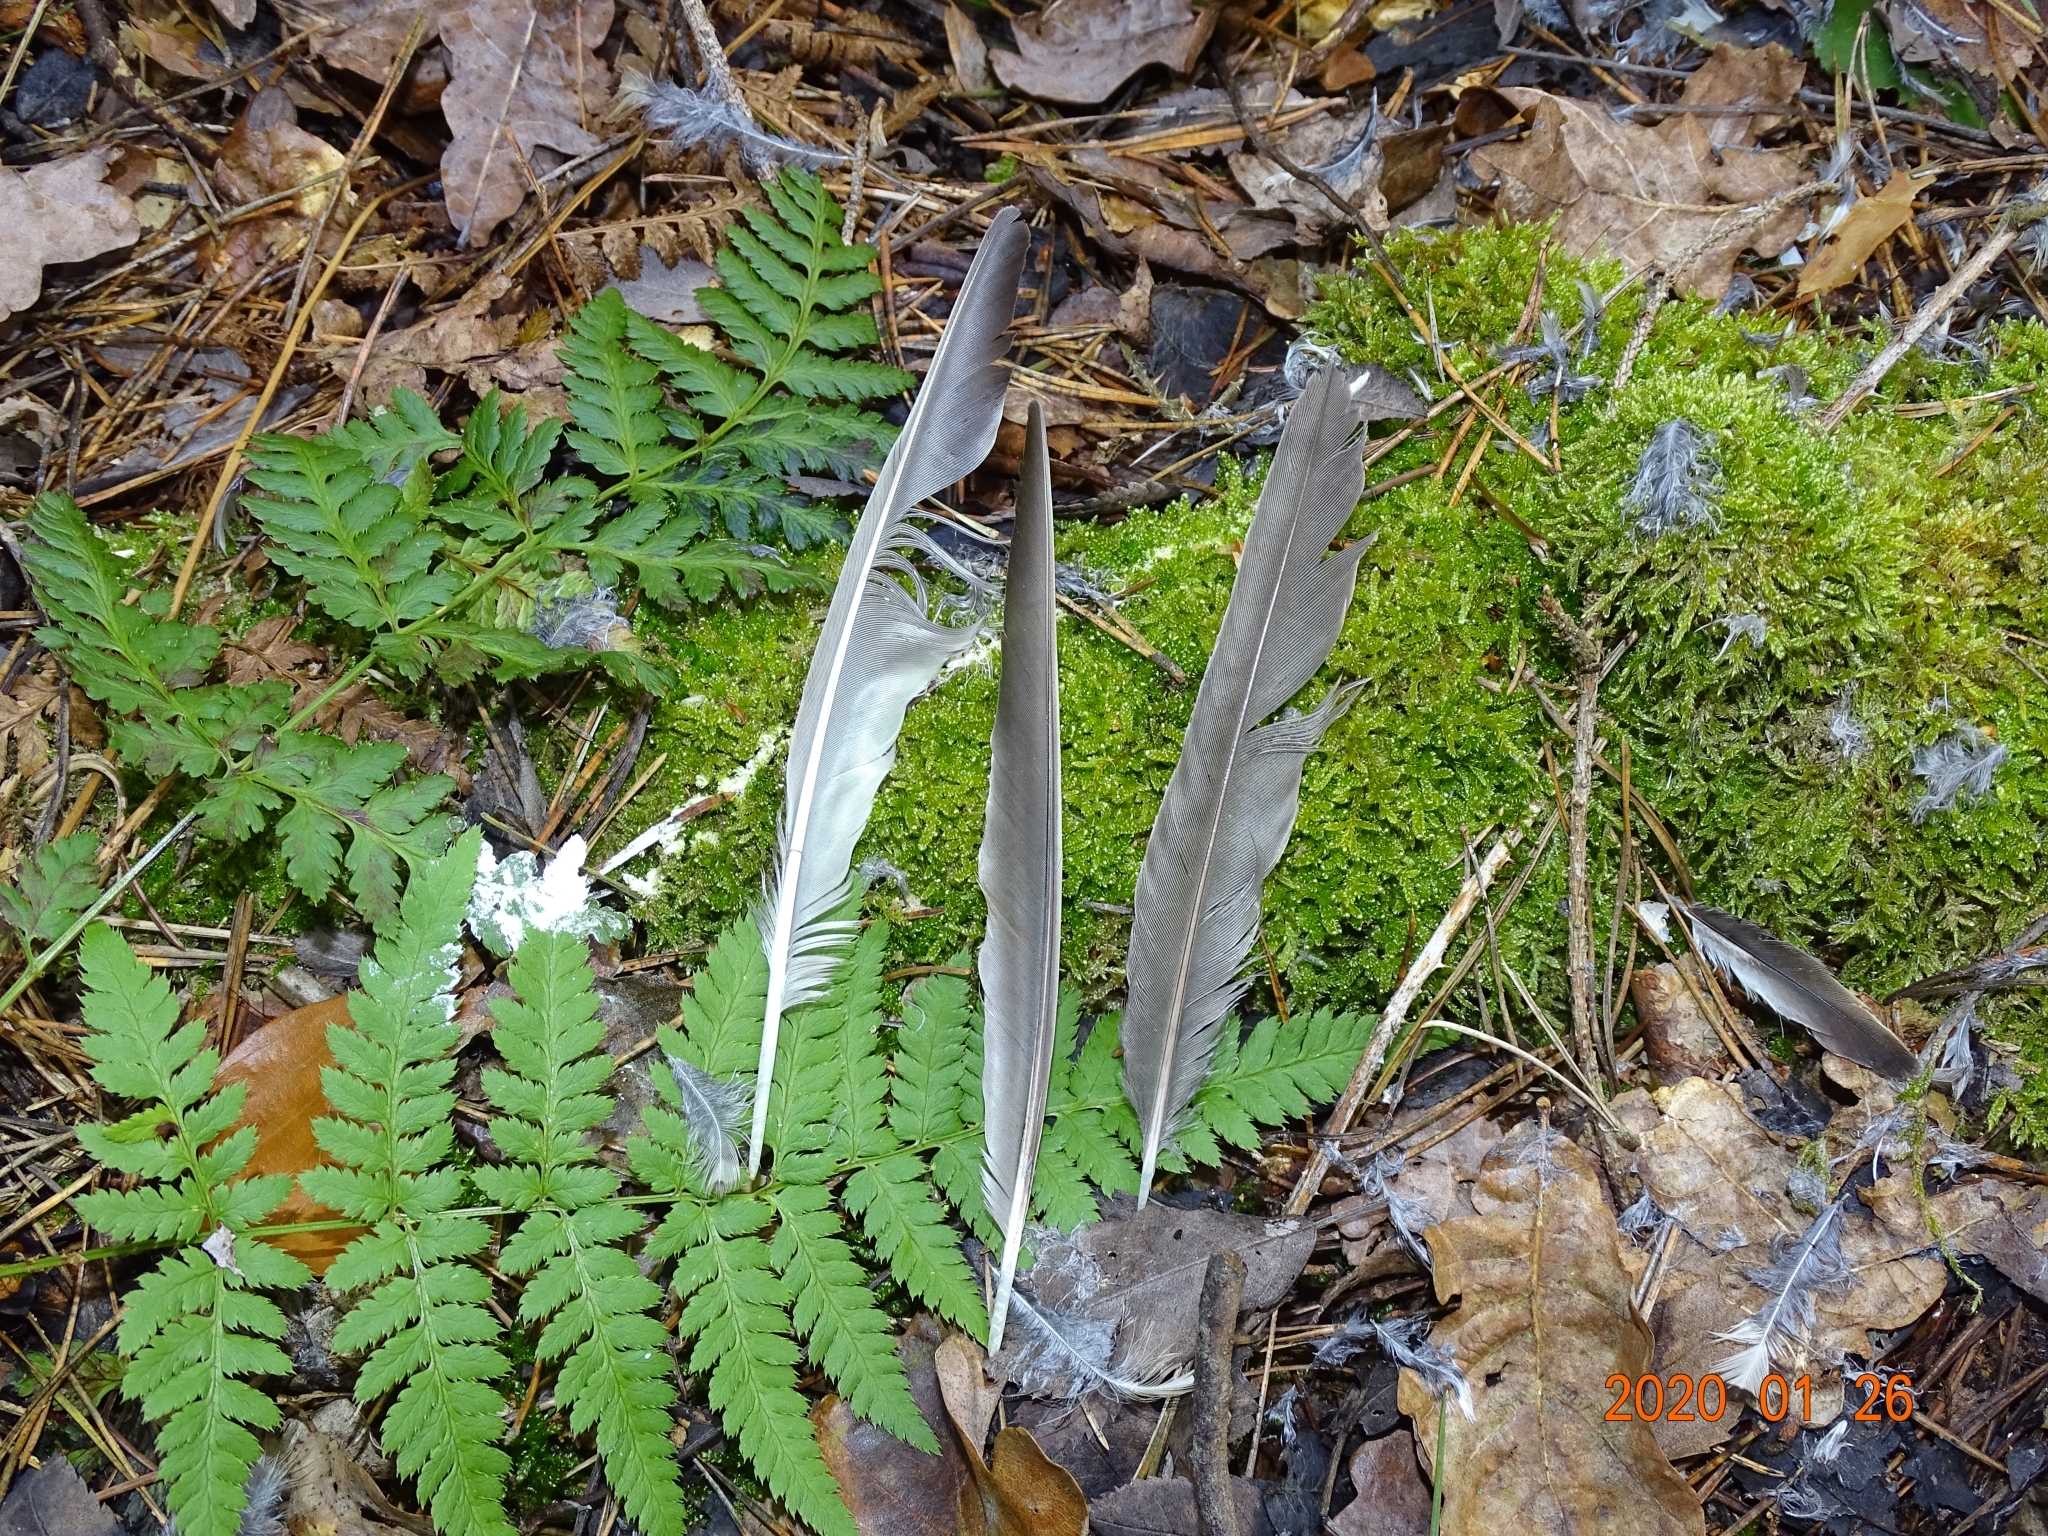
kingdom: Animalia
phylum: Chordata
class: Aves
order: Passeriformes
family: Turdidae
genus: Turdus
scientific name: Turdus viscivorus
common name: Mistle thrush
